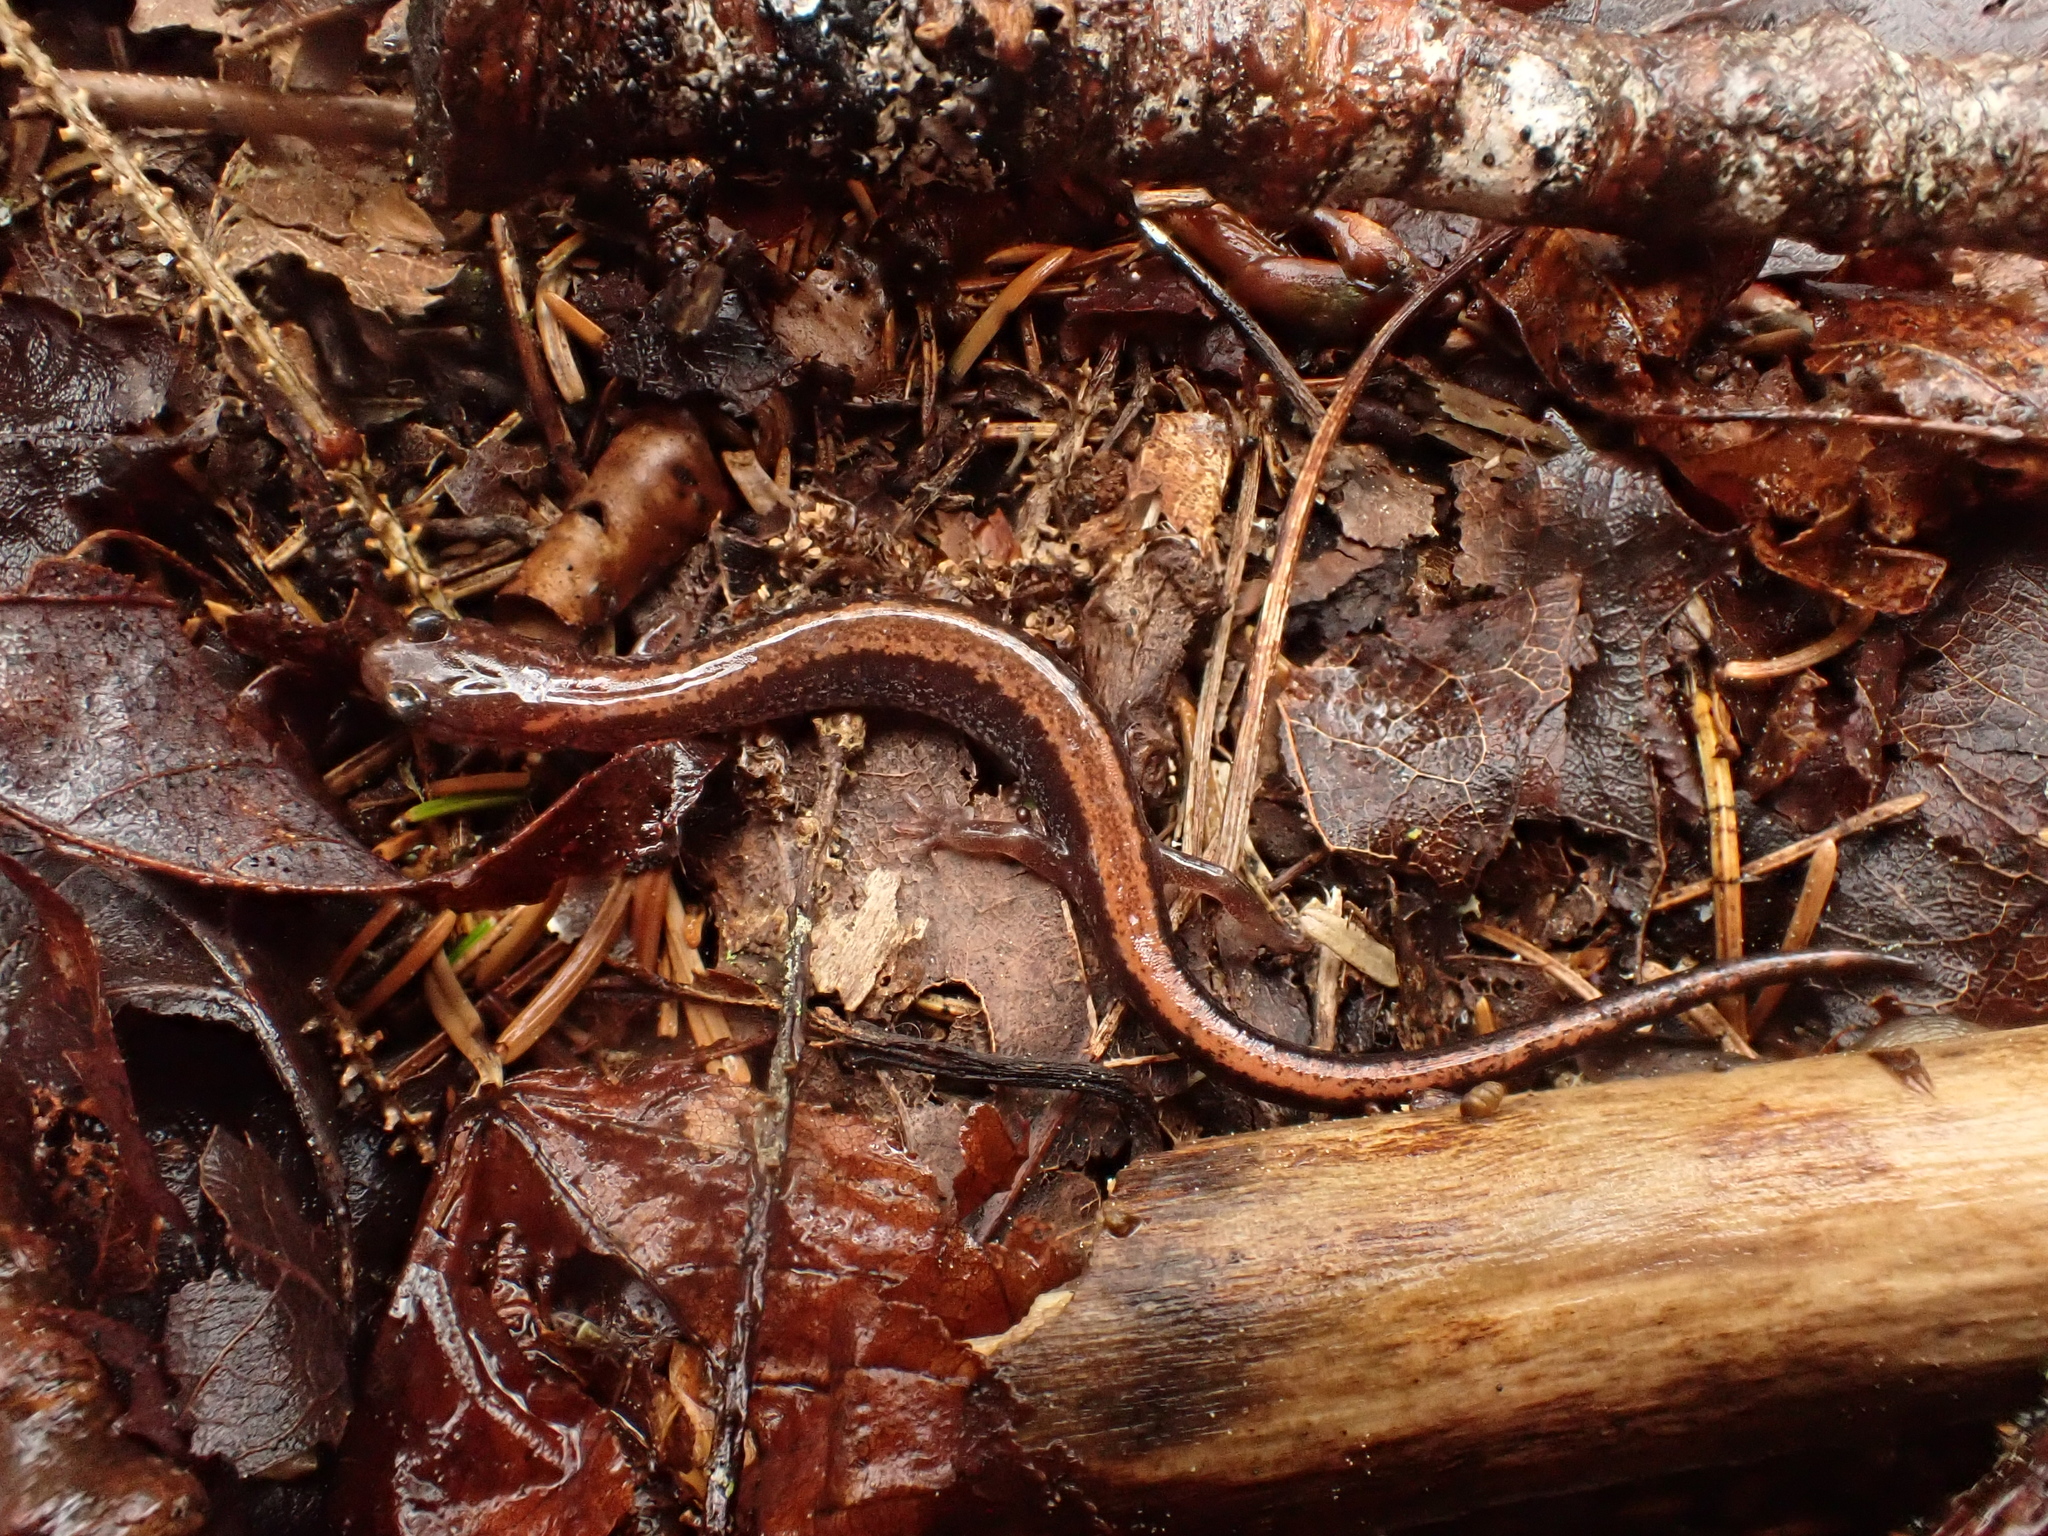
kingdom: Animalia
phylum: Chordata
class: Amphibia
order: Caudata
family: Plethodontidae
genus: Plethodon
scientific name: Plethodon cinereus
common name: Redback salamander
